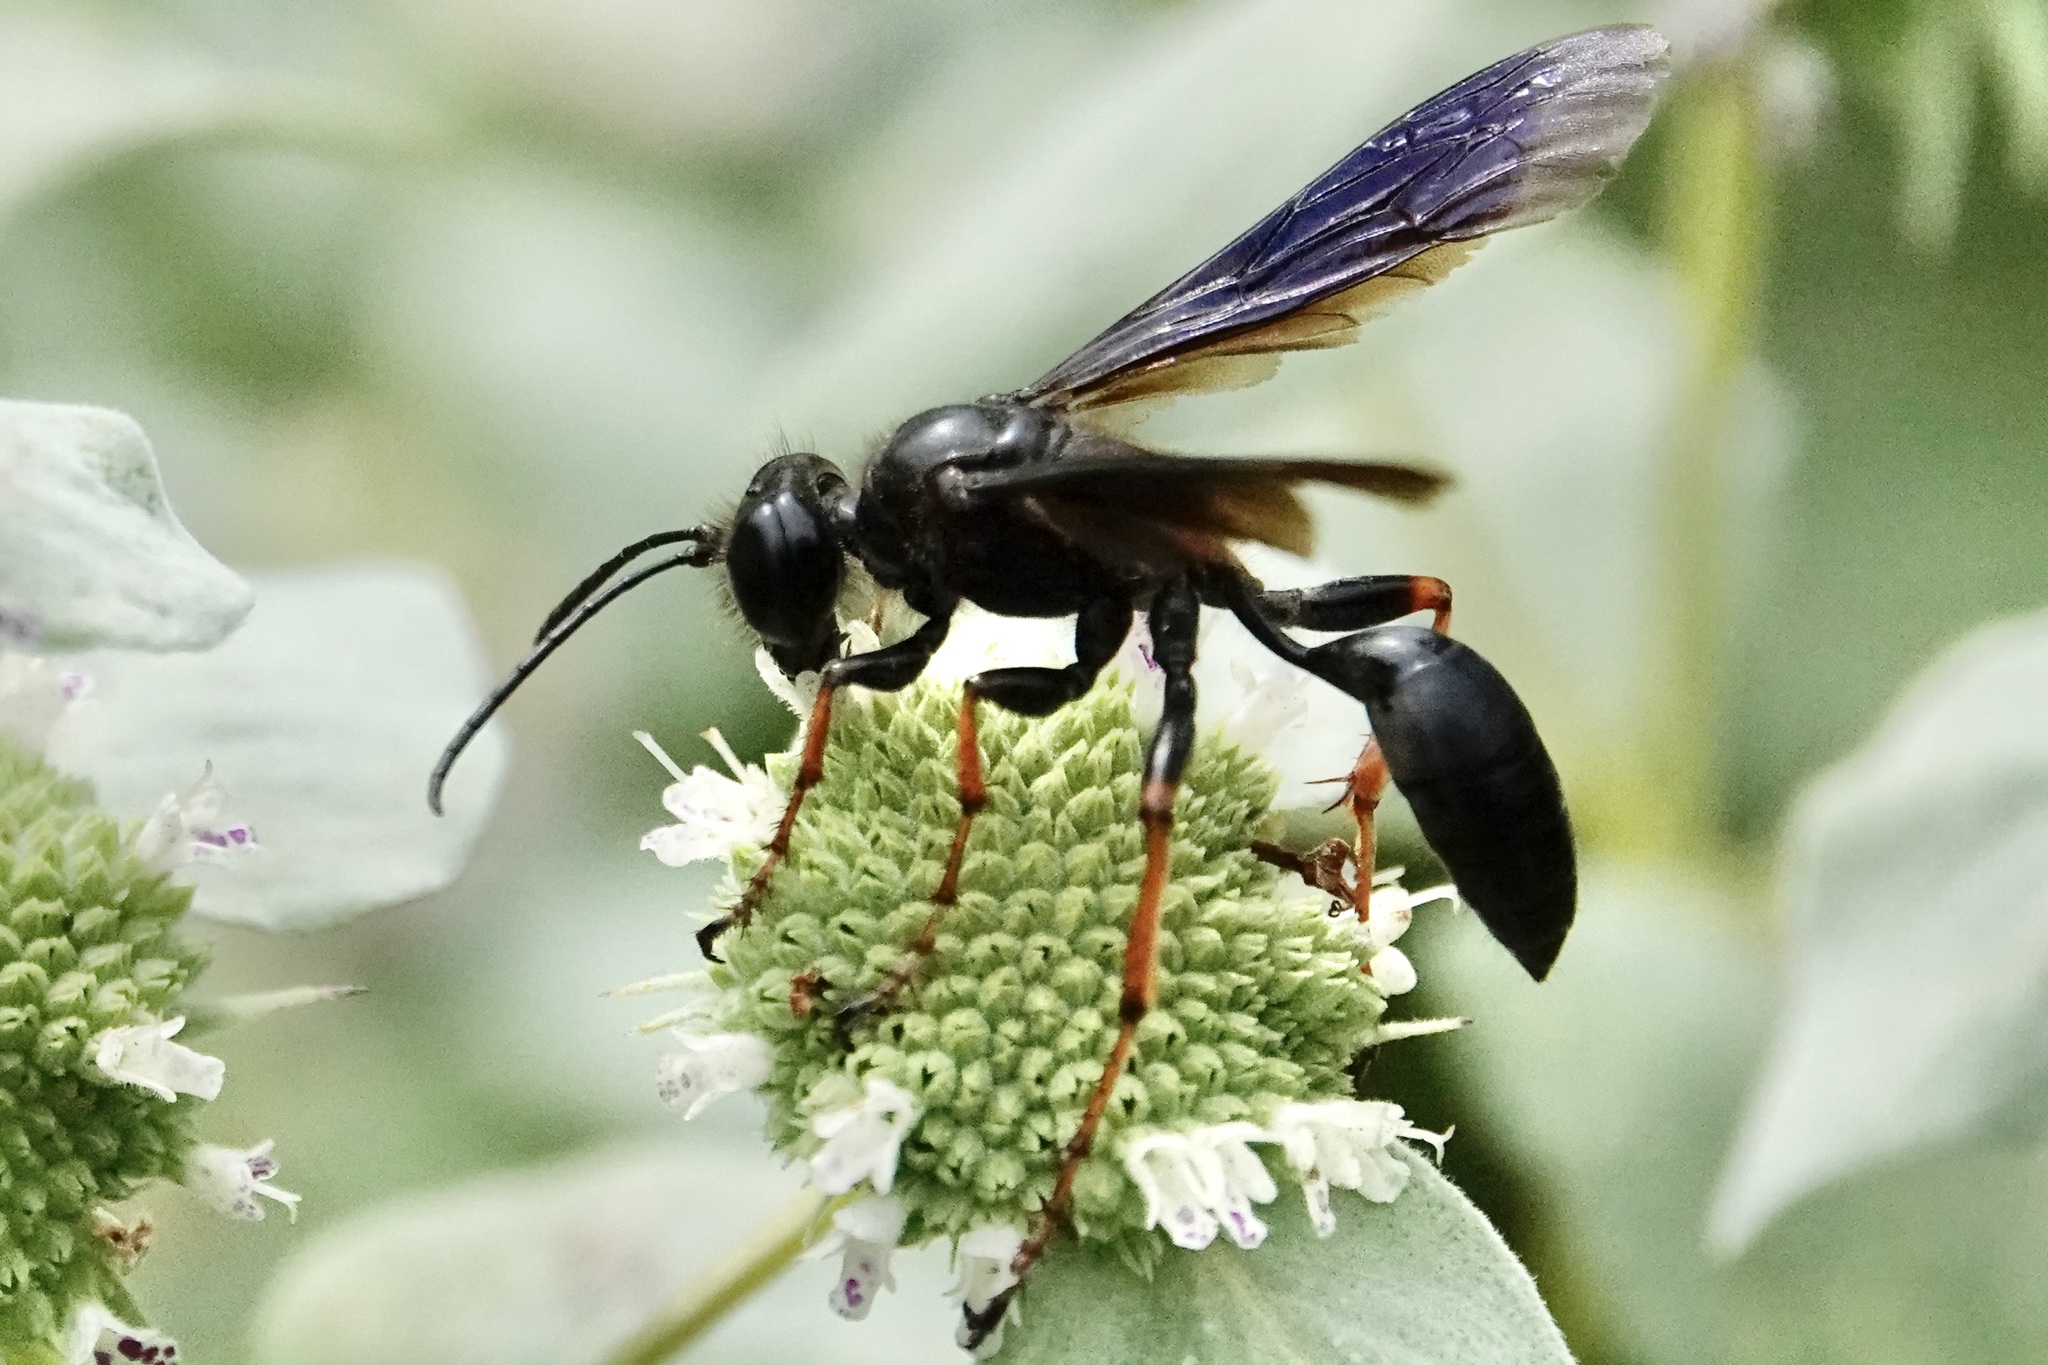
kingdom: Animalia
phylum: Arthropoda
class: Insecta
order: Hymenoptera
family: Sphecidae
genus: Isodontia
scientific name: Isodontia auripes
